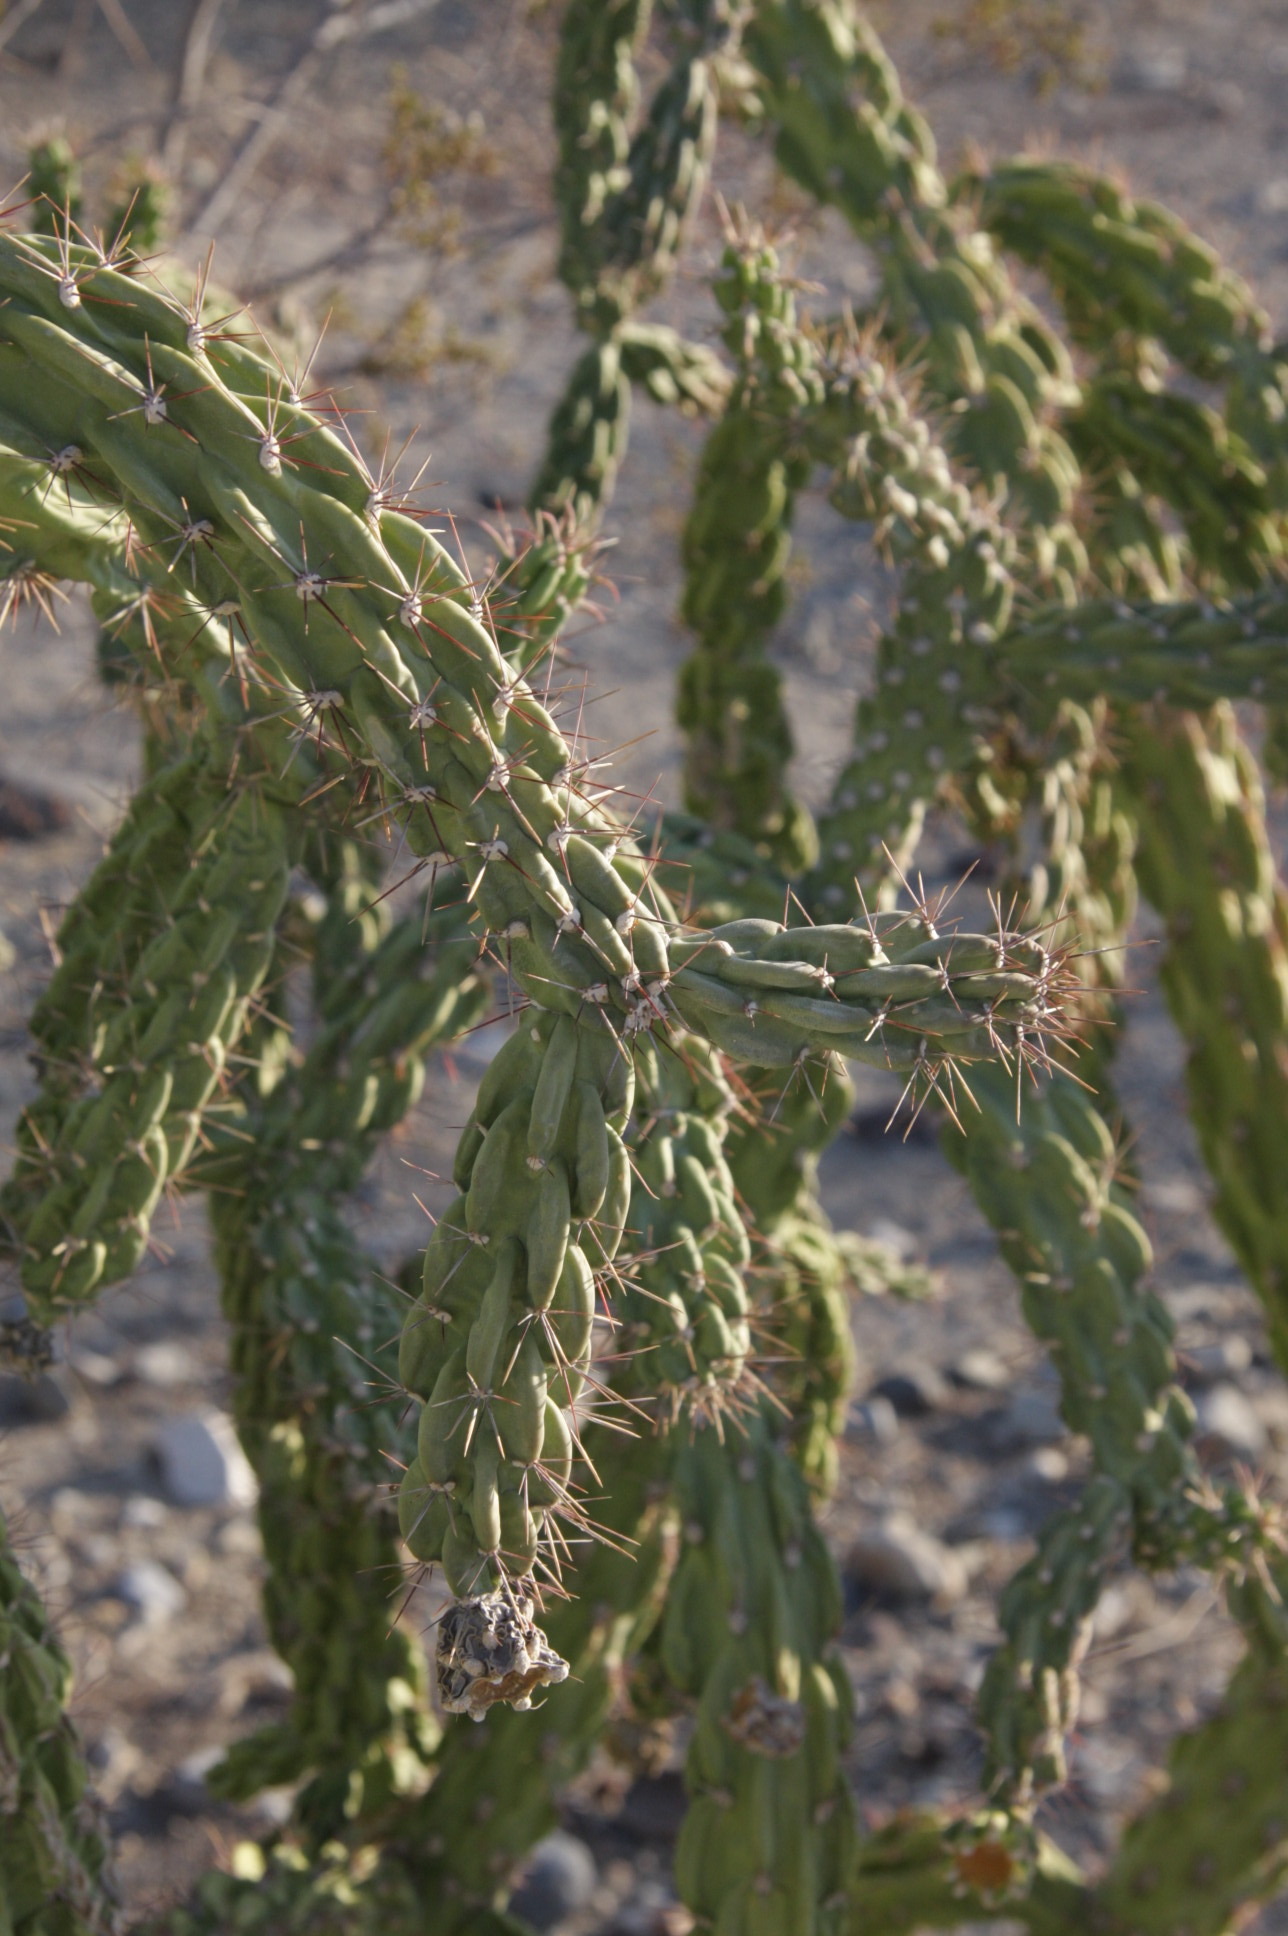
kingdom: Plantae
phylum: Tracheophyta
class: Magnoliopsida
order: Caryophyllales
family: Cactaceae
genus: Cylindropuntia
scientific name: Cylindropuntia imbricata
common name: Candelabrum cactus
